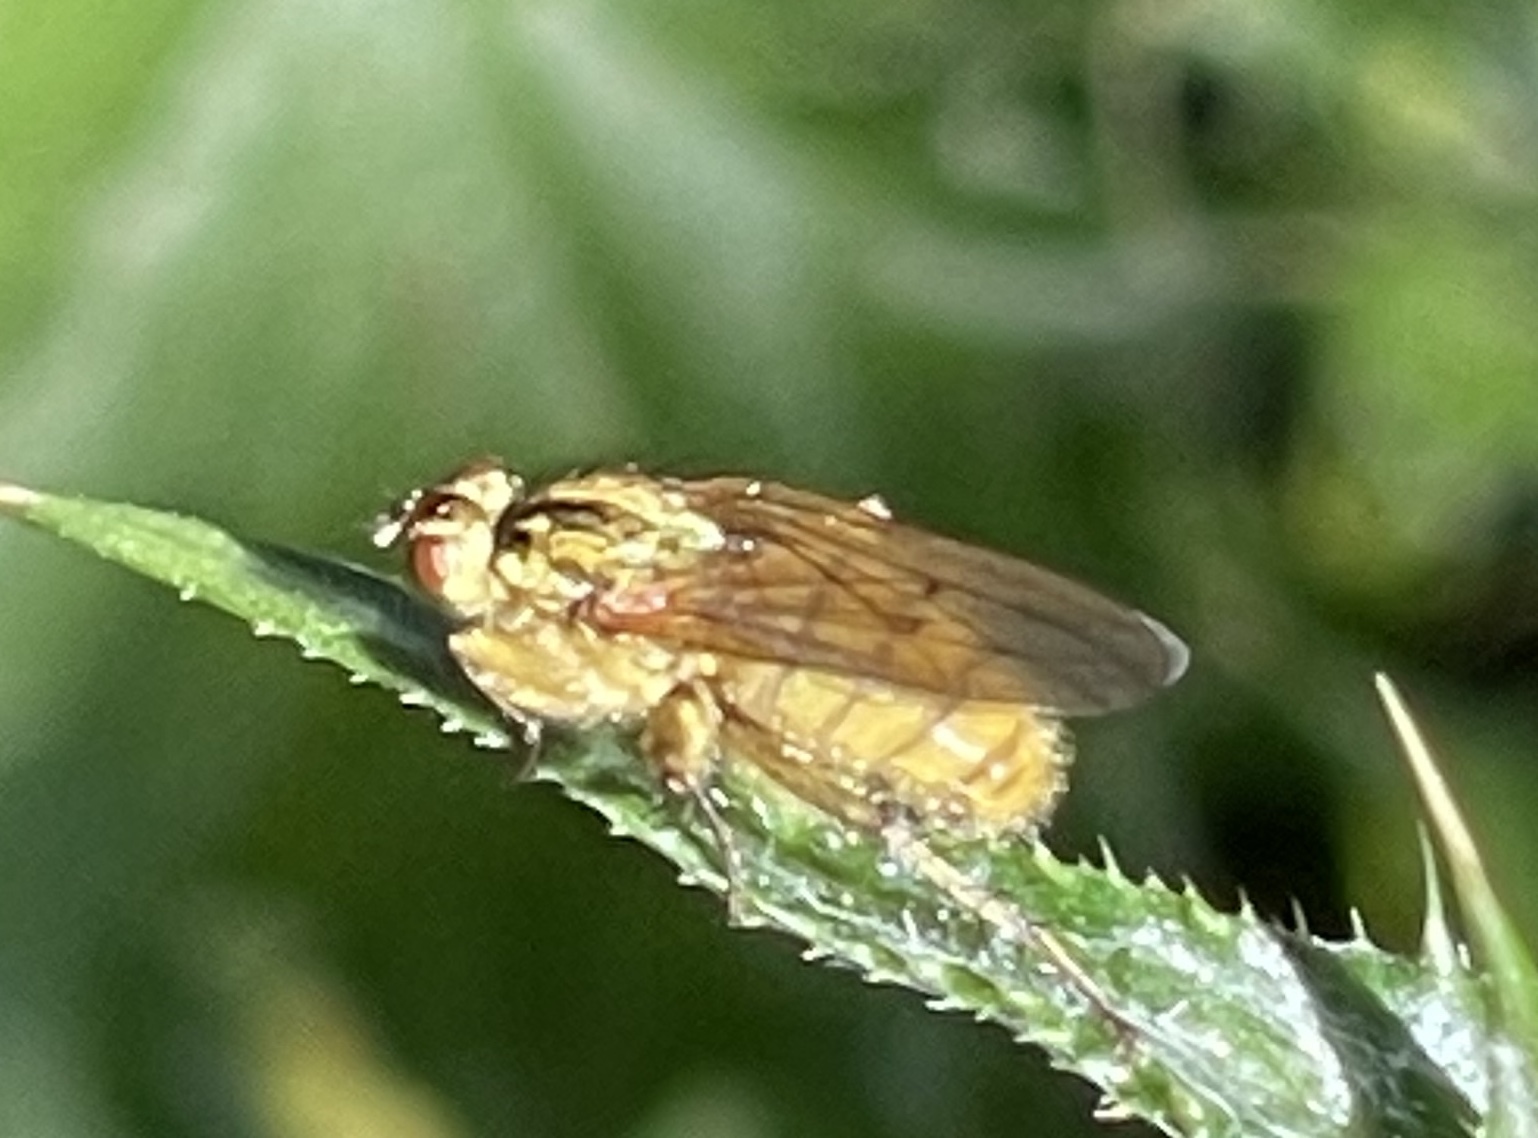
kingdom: Animalia
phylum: Arthropoda
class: Insecta
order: Diptera
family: Scathophagidae
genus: Scathophaga
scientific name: Scathophaga stercoraria
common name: Yellow dung fly
